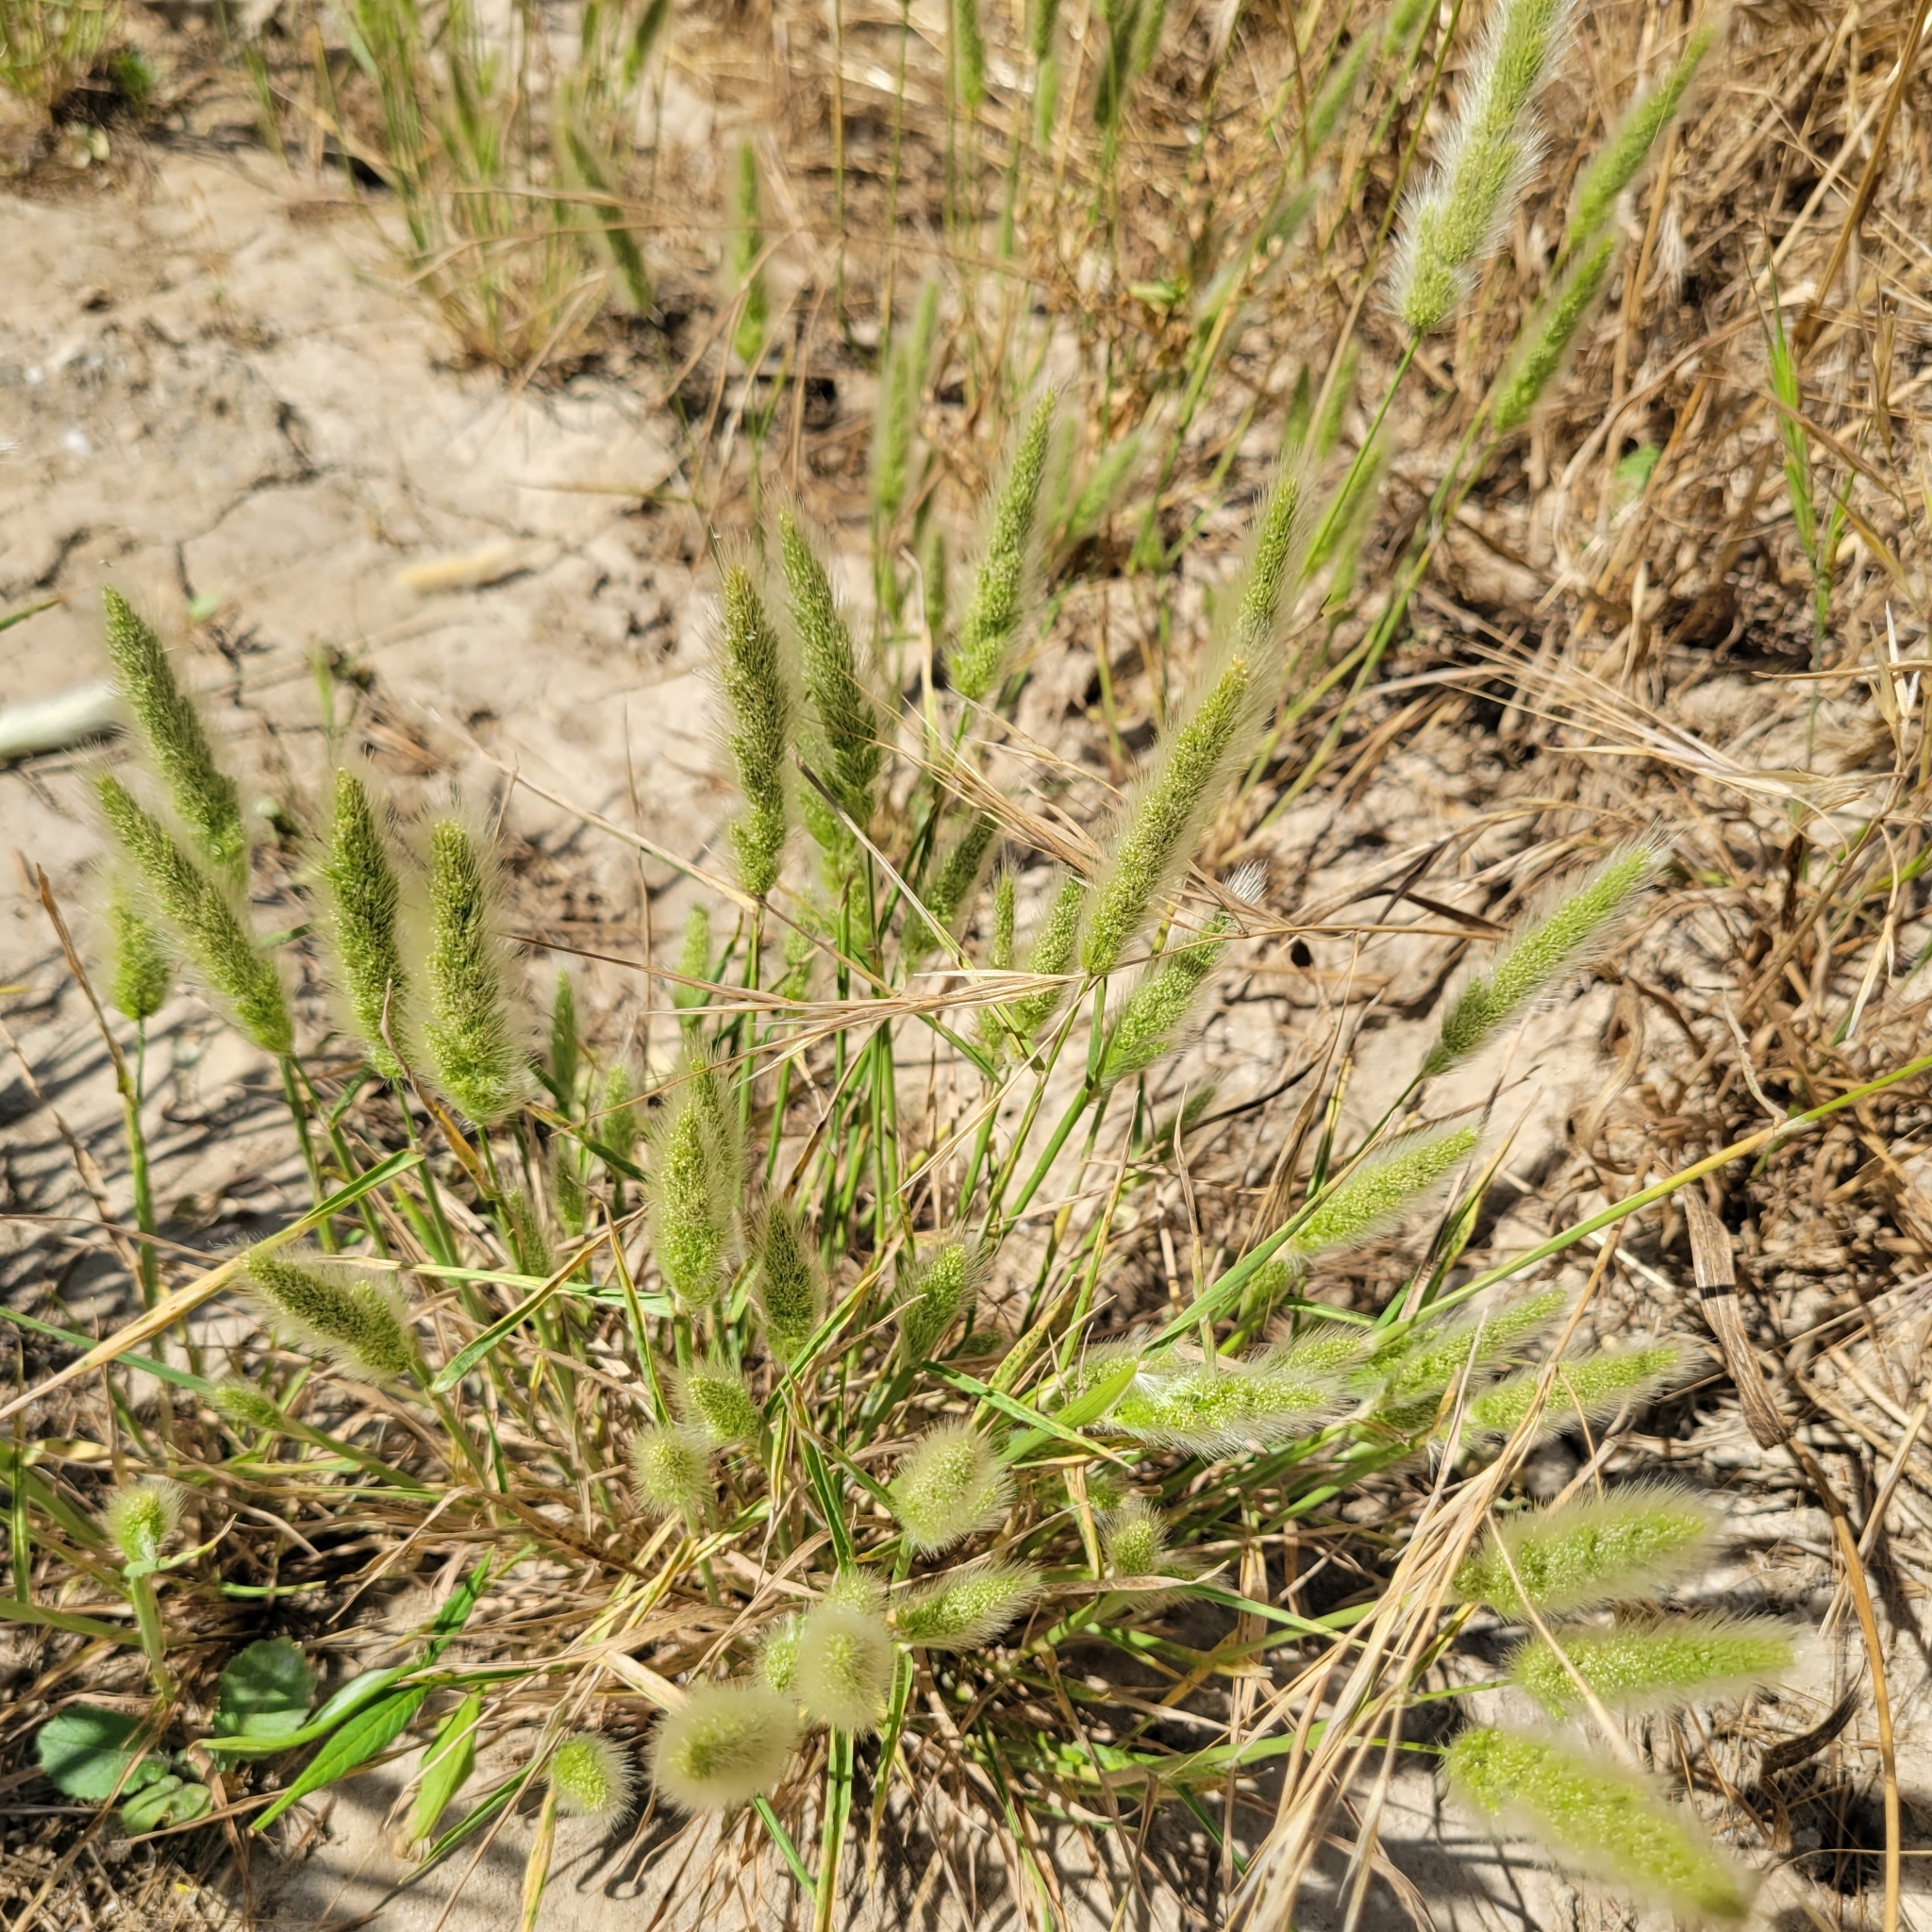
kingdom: Plantae
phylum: Tracheophyta
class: Liliopsida
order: Poales
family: Poaceae
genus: Polypogon
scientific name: Polypogon monspeliensis
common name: Annual rabbitsfoot grass
